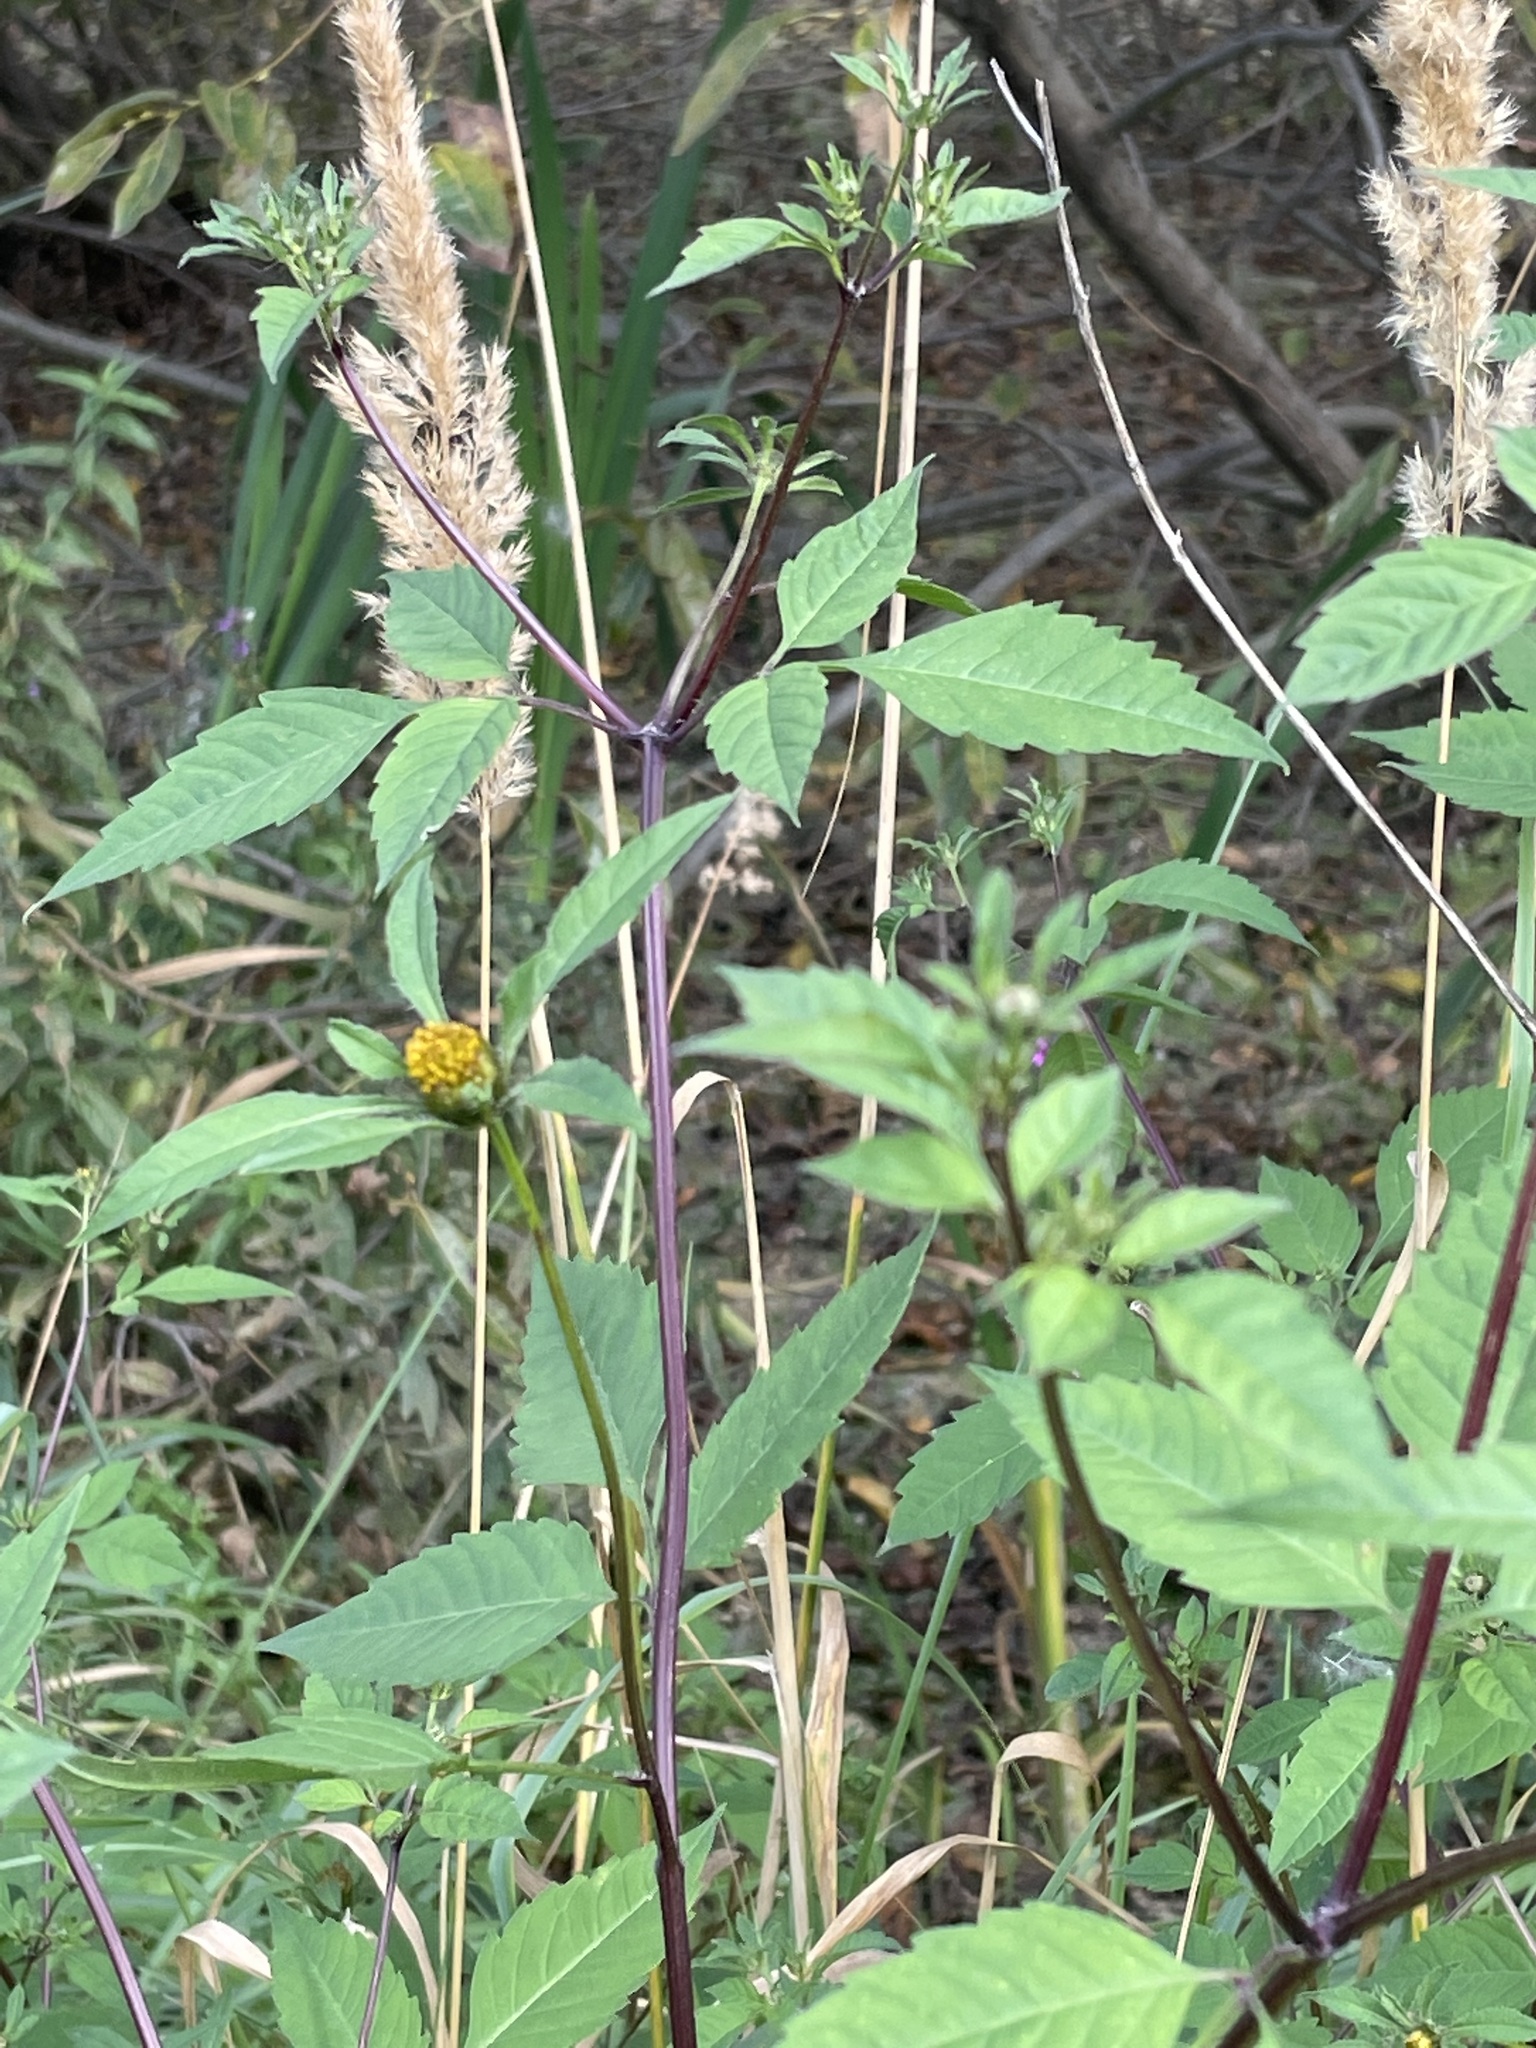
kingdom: Plantae
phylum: Tracheophyta
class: Magnoliopsida
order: Asterales
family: Asteraceae
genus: Bidens
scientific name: Bidens frondosa
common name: Beggarticks
